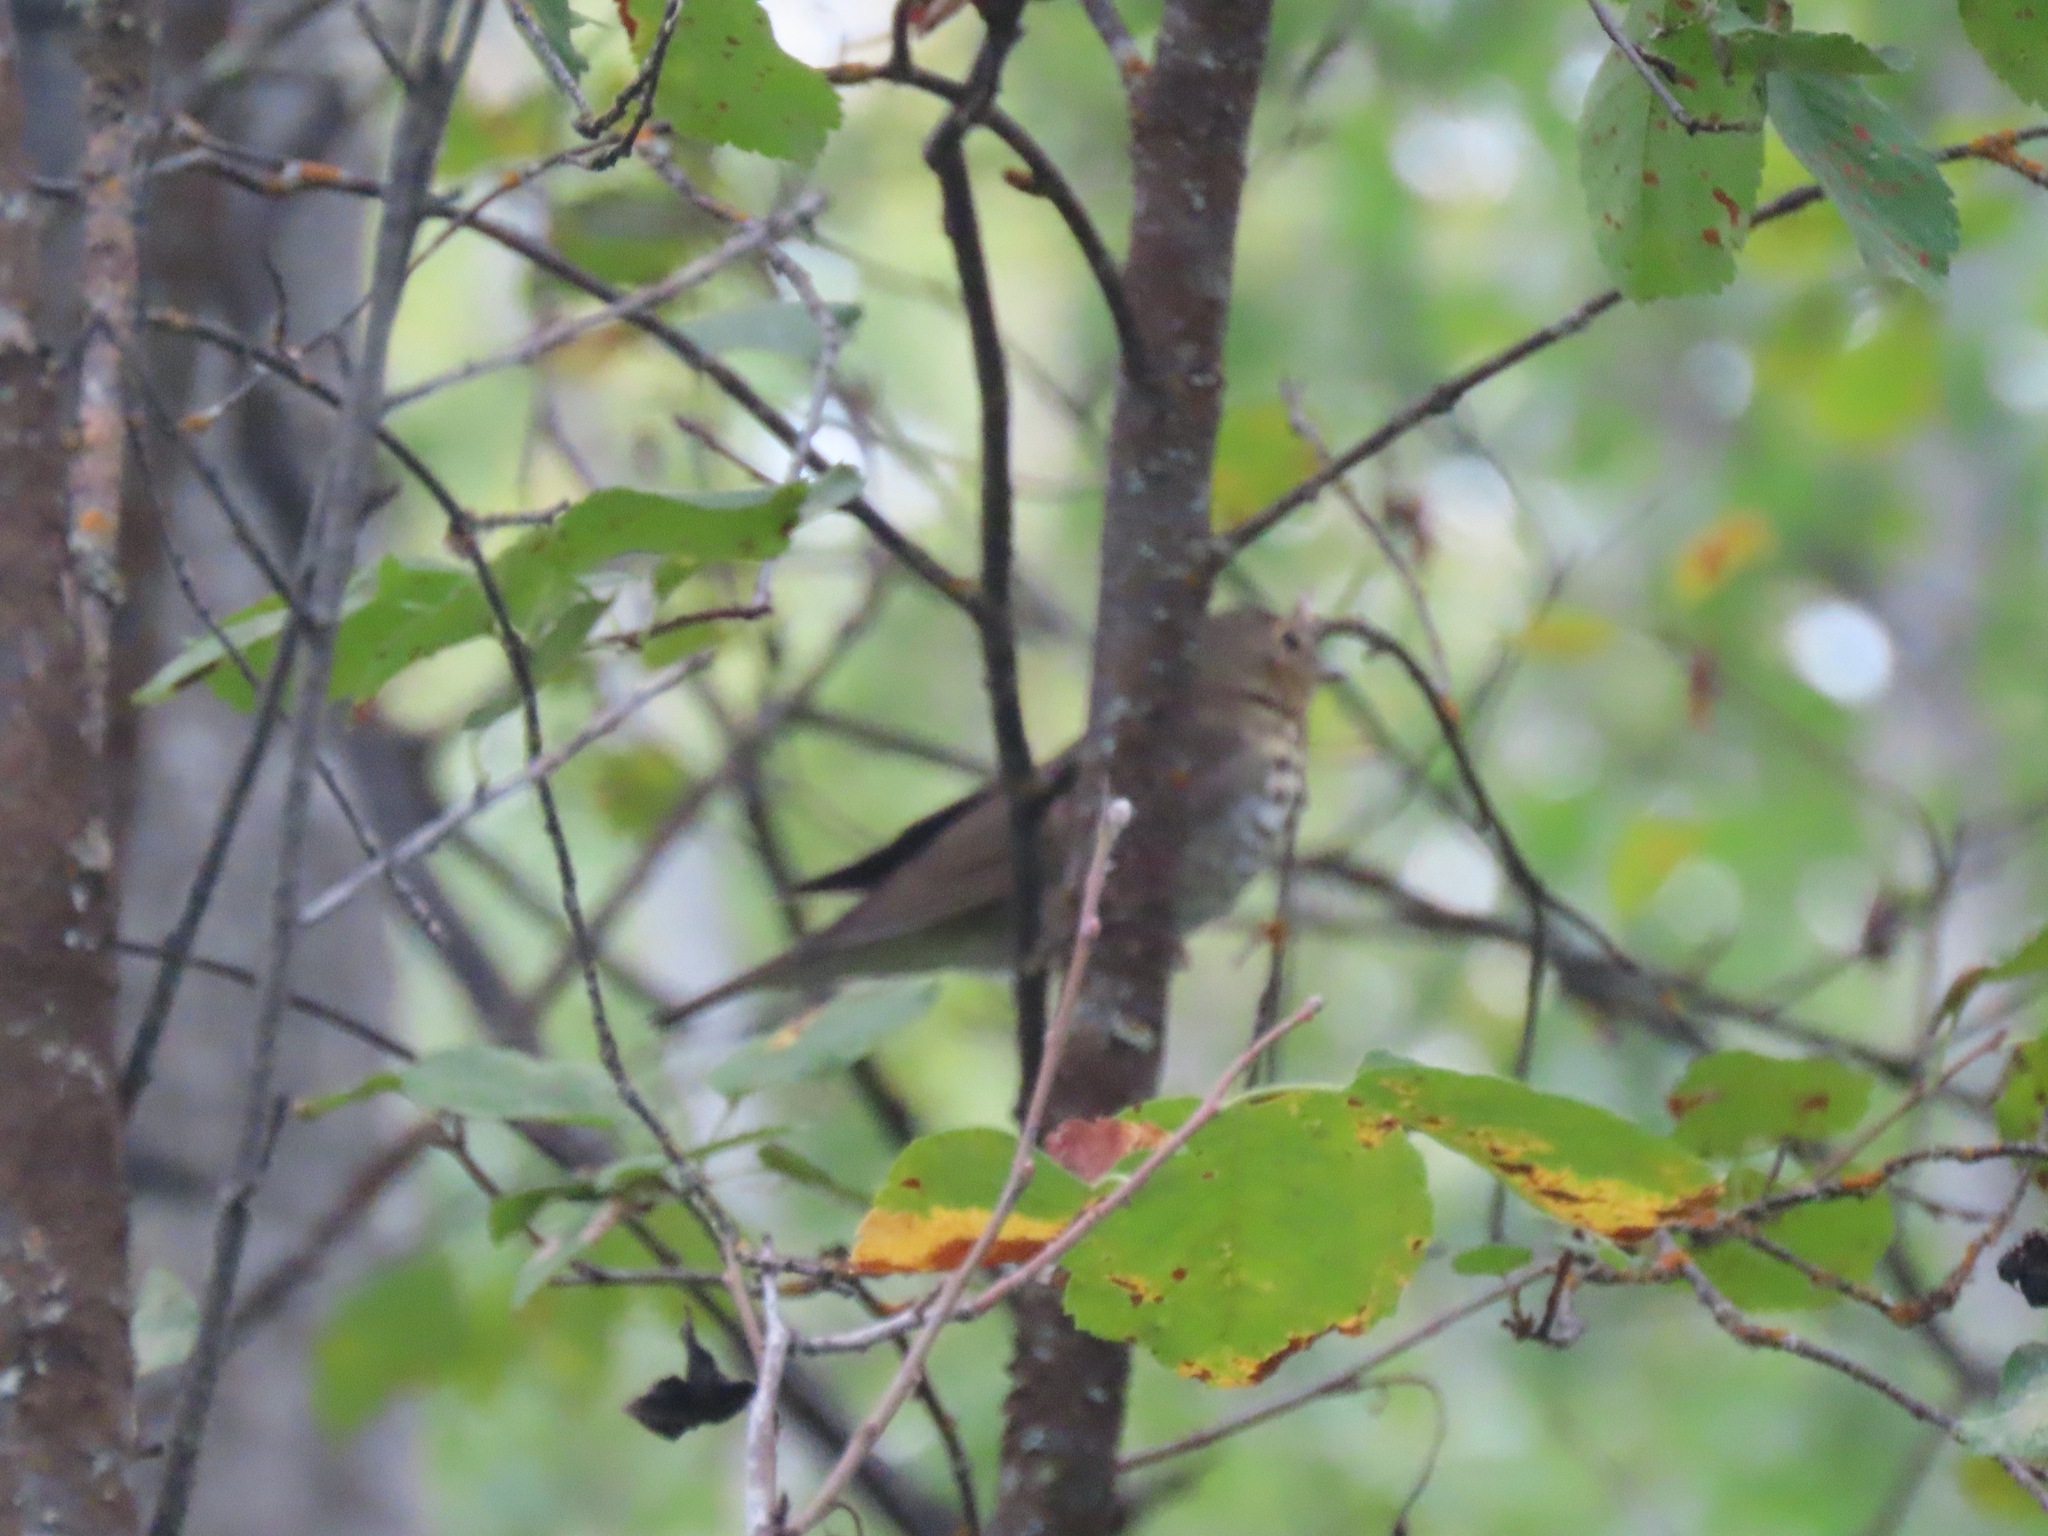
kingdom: Animalia
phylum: Chordata
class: Aves
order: Passeriformes
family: Turdidae
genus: Catharus
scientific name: Catharus ustulatus
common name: Swainson's thrush
